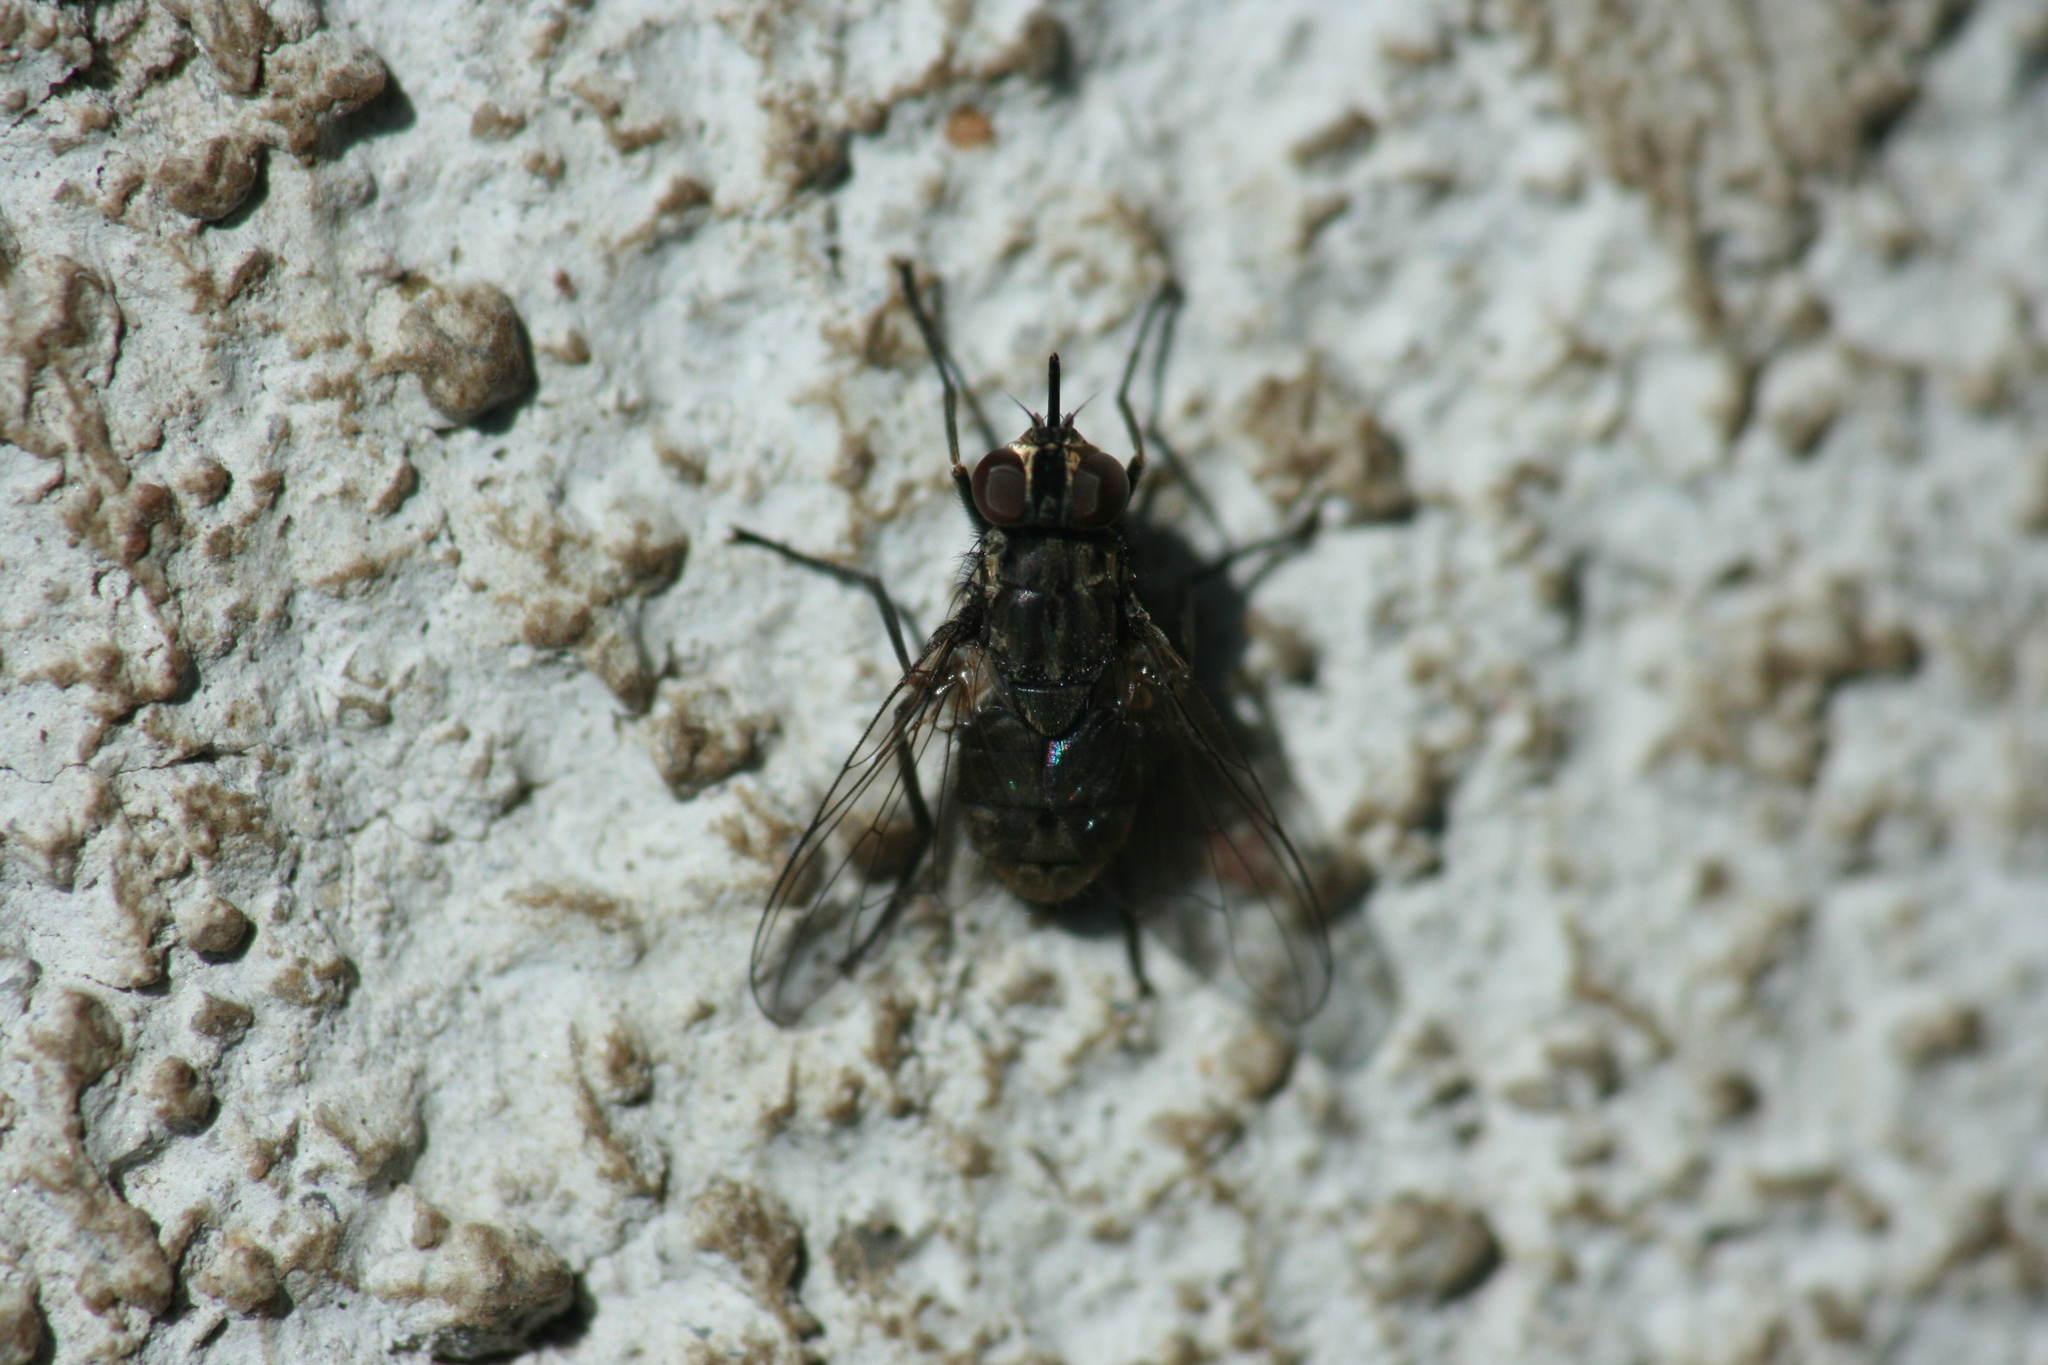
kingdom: Animalia
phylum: Arthropoda
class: Insecta
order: Diptera
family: Muscidae
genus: Stomoxys
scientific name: Stomoxys calcitrans
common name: Stable fly
